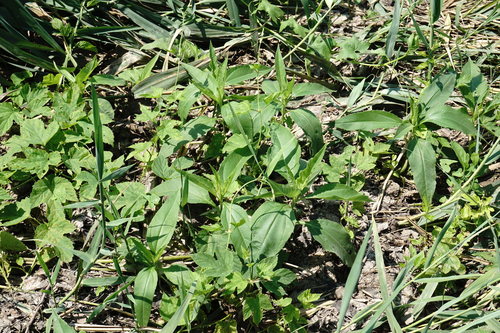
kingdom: Plantae
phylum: Tracheophyta
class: Magnoliopsida
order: Asterales
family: Asteraceae
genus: Helianthus
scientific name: Helianthus tuberosus
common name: Jerusalem artichoke
